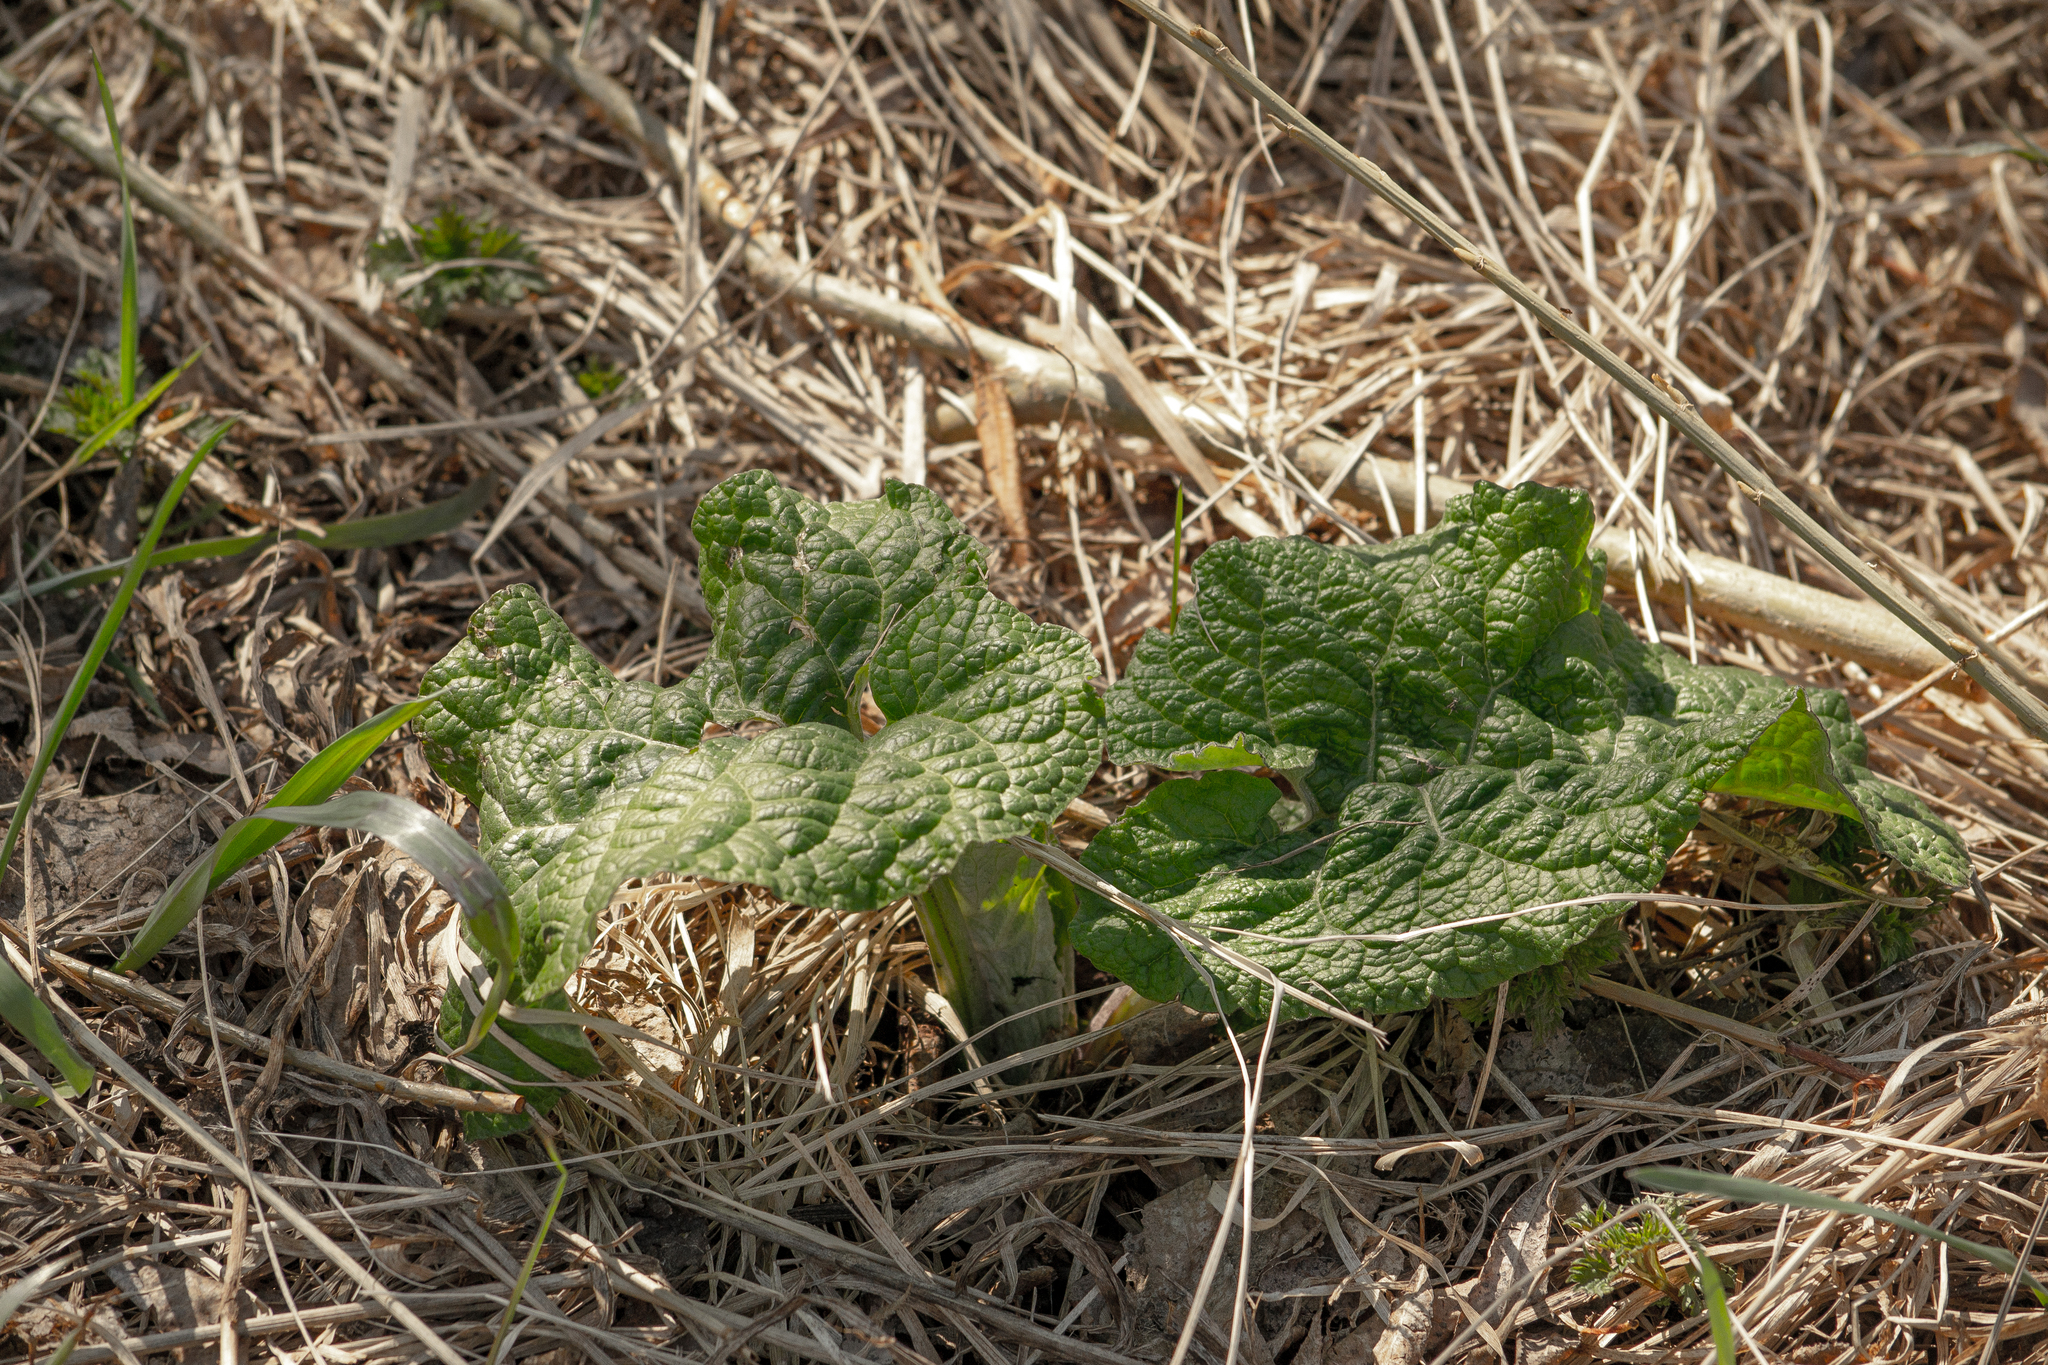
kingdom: Plantae
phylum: Tracheophyta
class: Magnoliopsida
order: Asterales
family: Asteraceae
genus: Arctium
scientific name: Arctium tomentosum
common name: Woolly burdock
